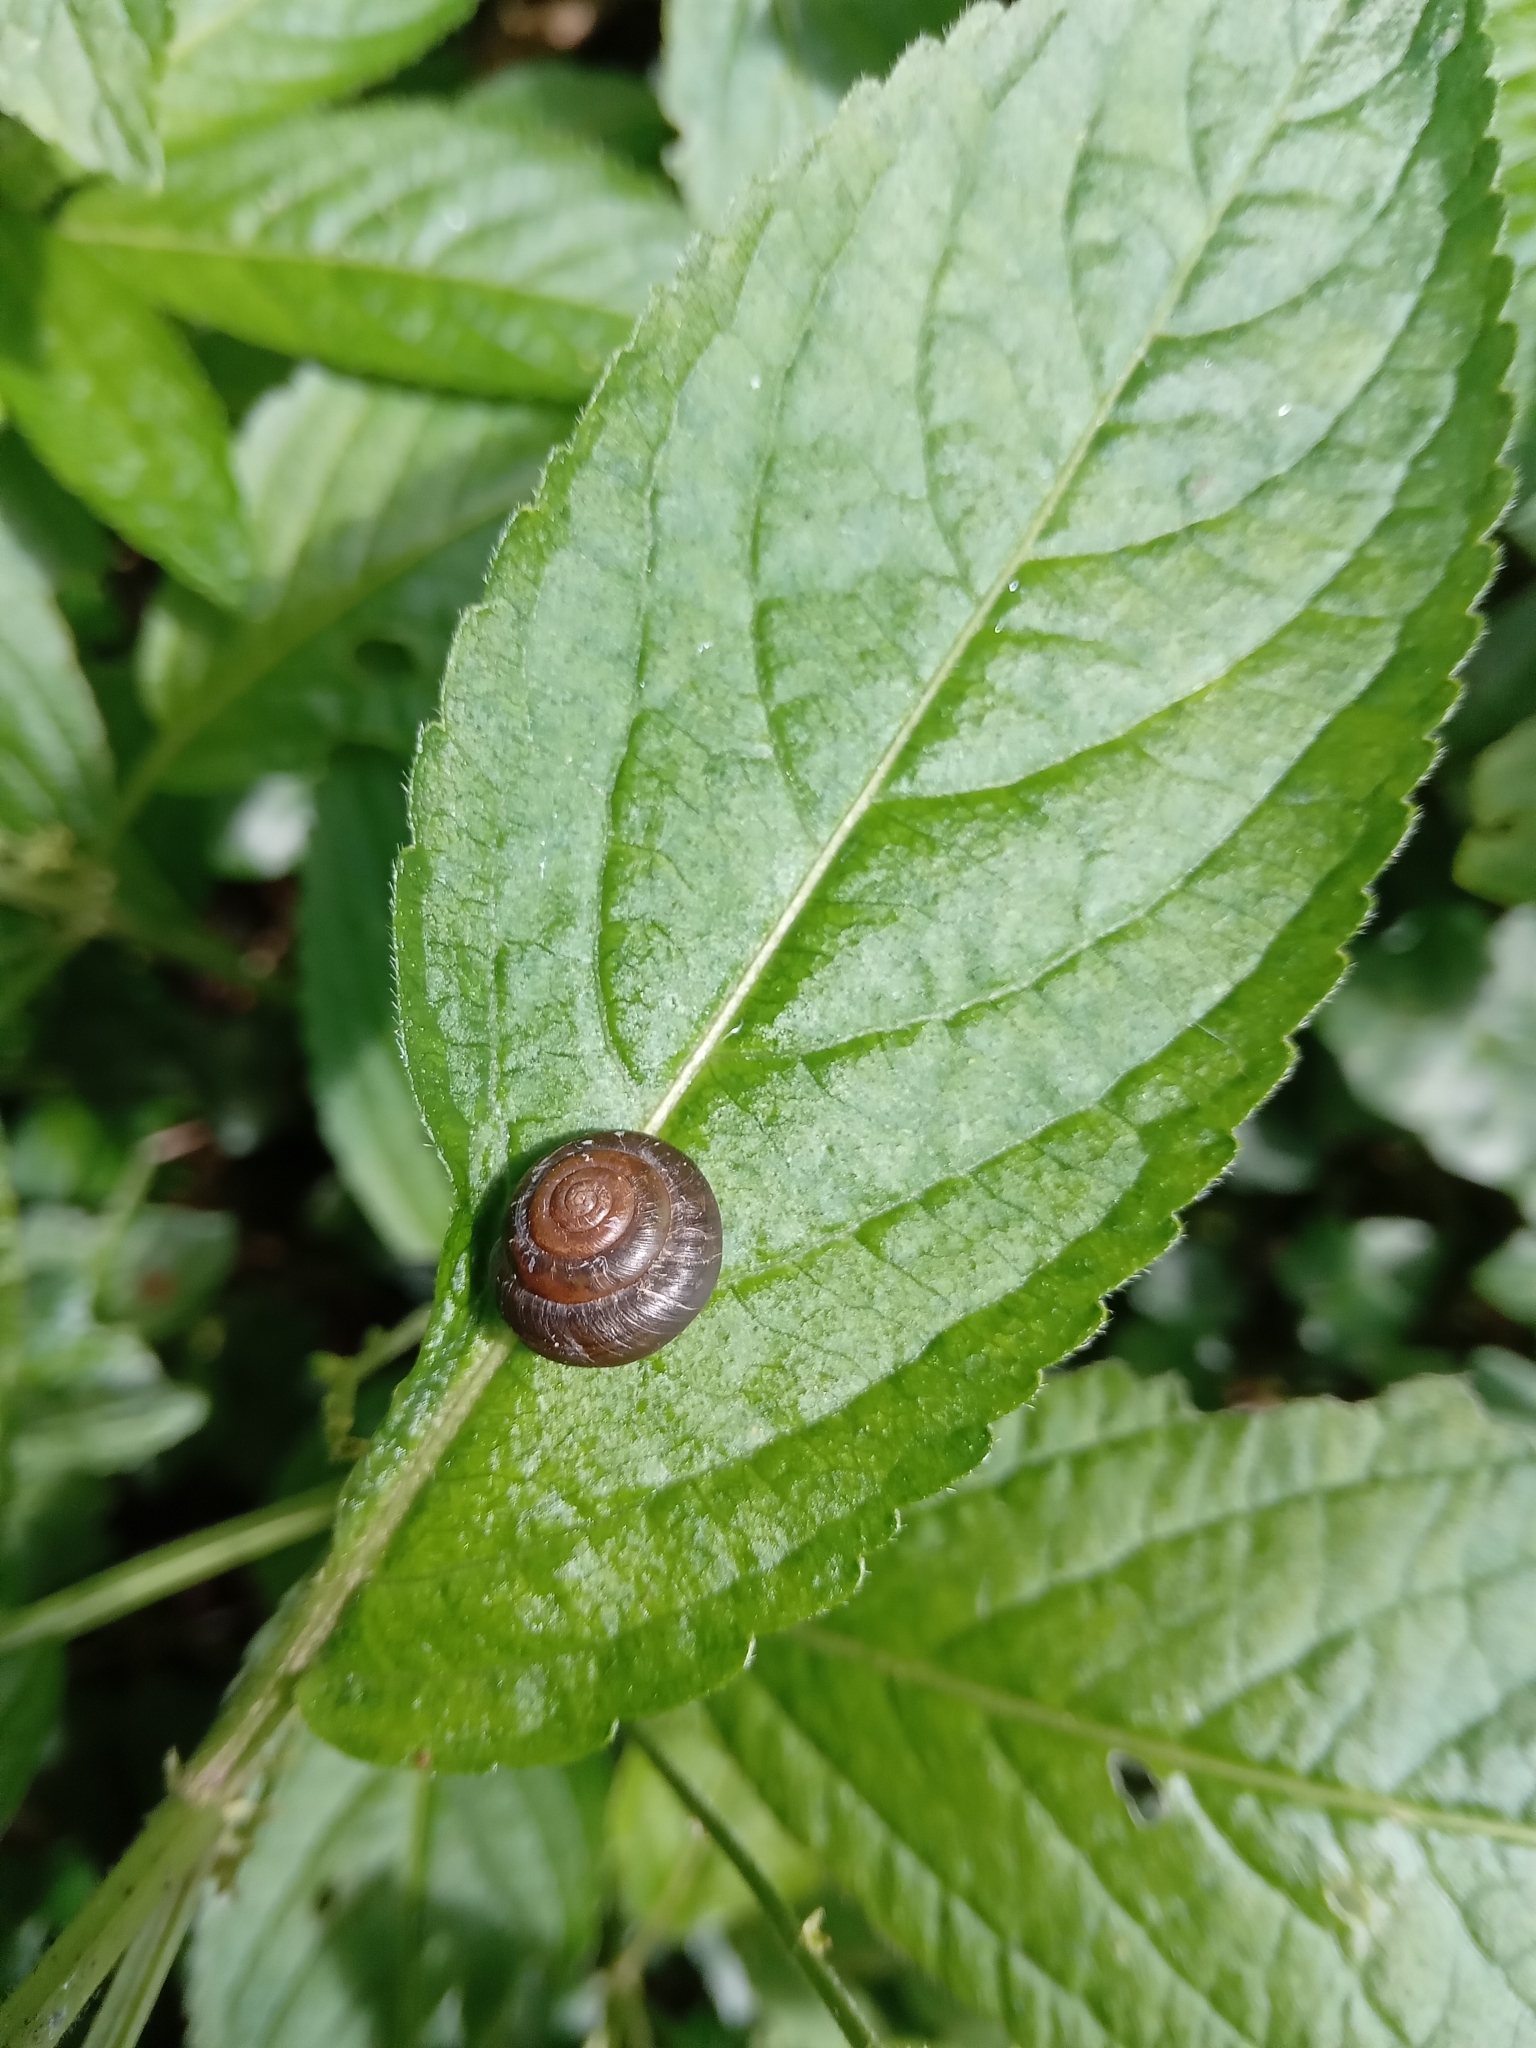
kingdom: Animalia
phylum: Mollusca
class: Gastropoda
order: Stylommatophora
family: Hygromiidae
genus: Trochulus
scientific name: Trochulus striolatus
